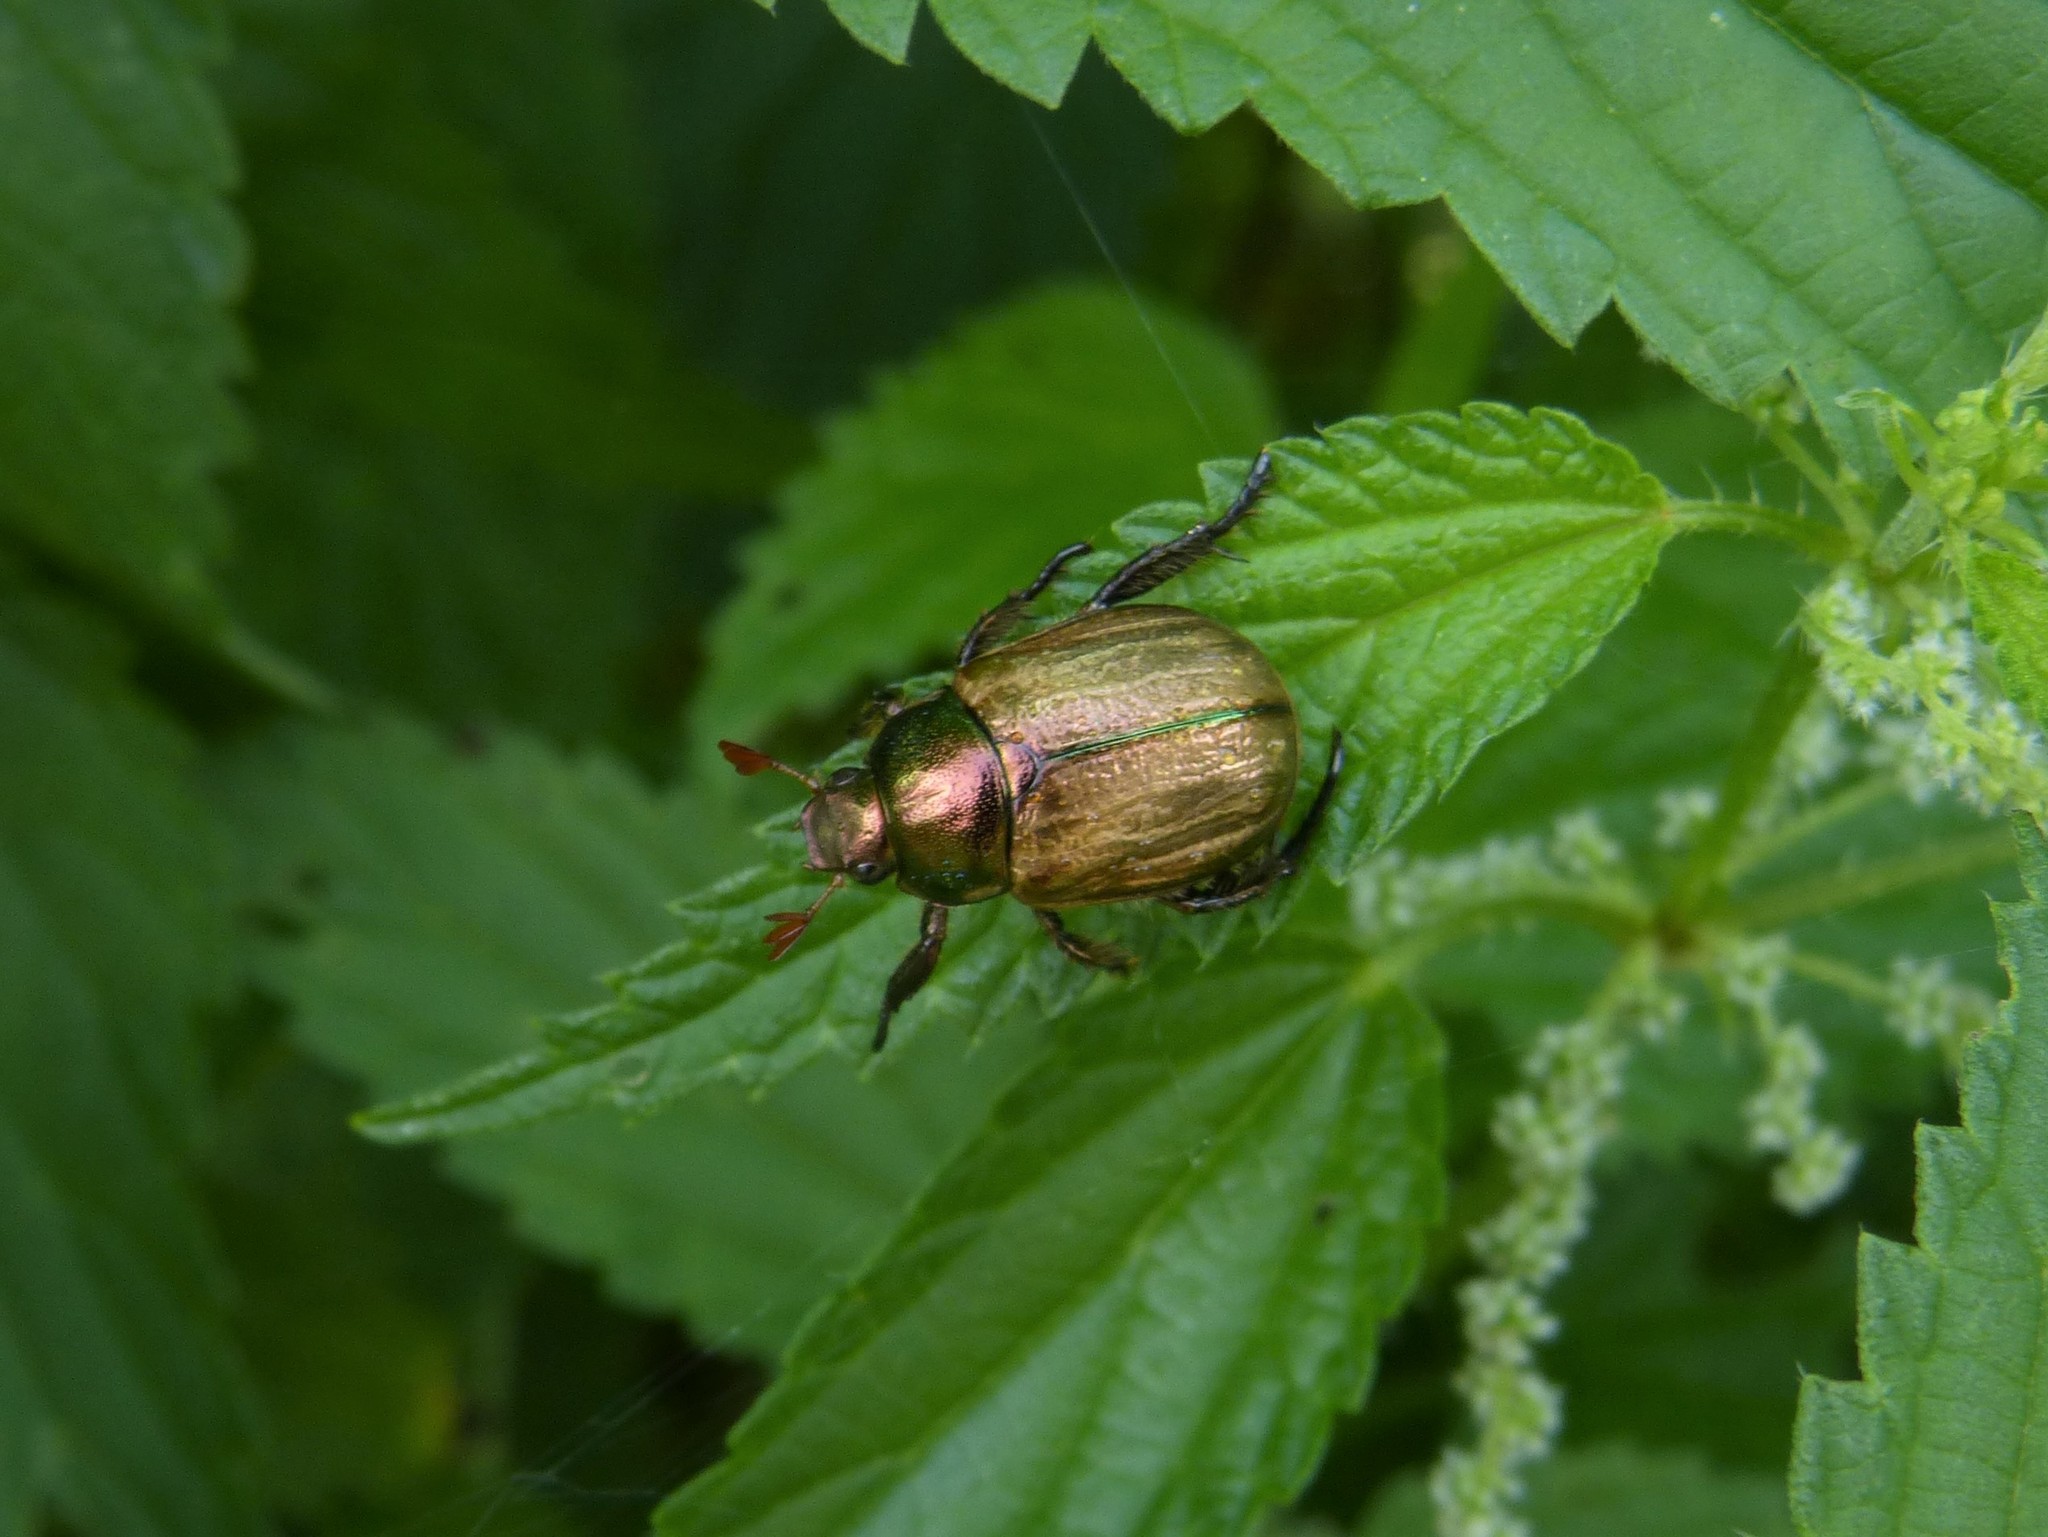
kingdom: Animalia
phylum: Arthropoda
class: Insecta
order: Coleoptera
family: Scarabaeidae
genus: Mimela
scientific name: Mimela junii
